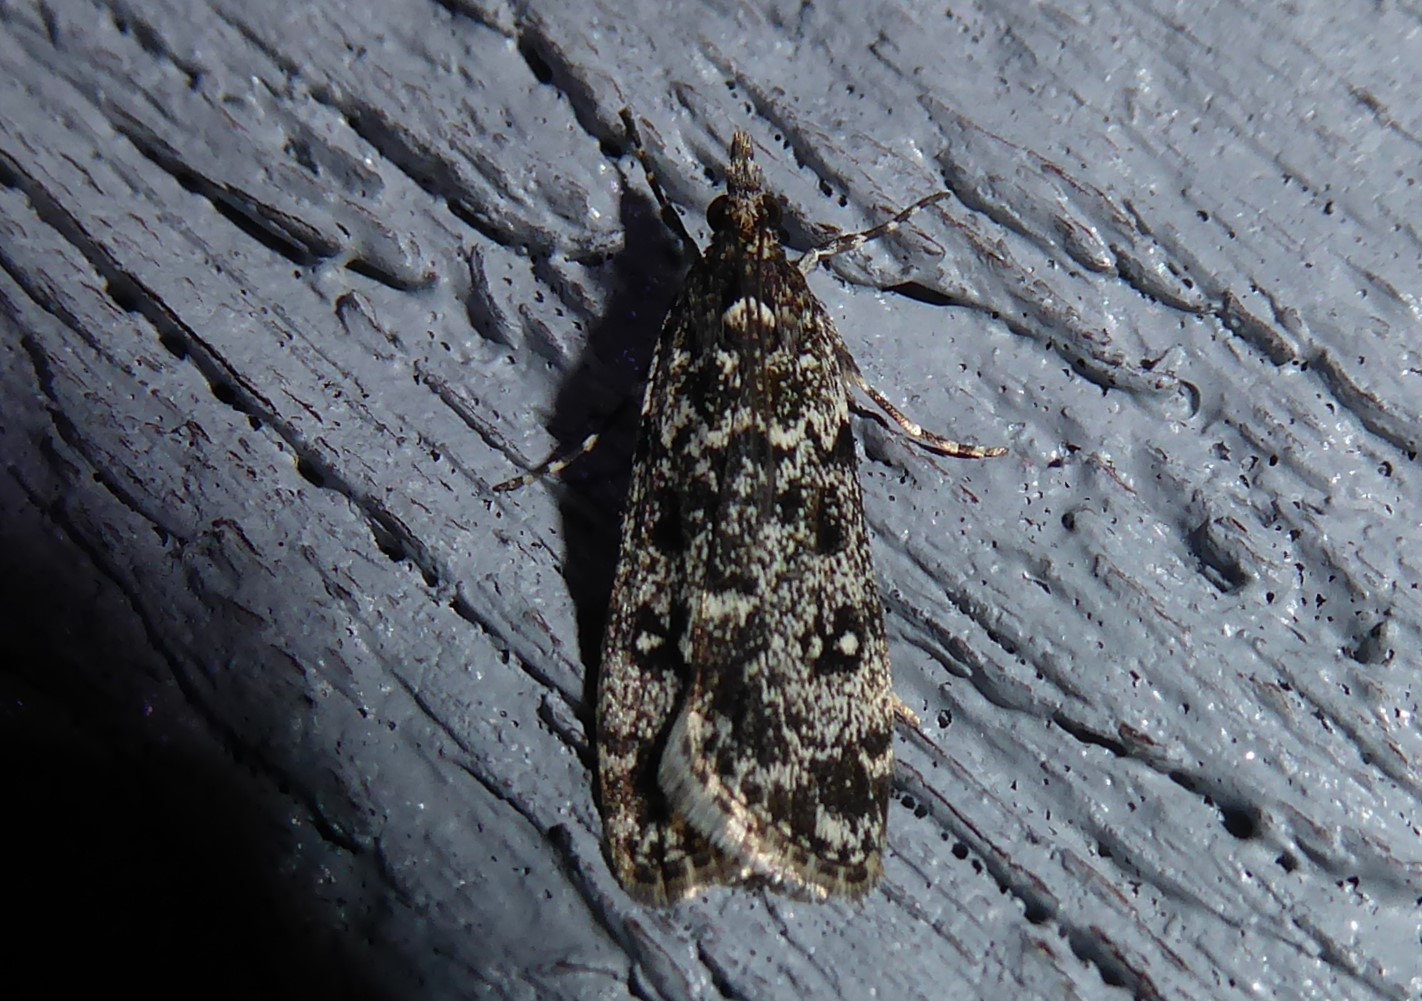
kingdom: Animalia
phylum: Arthropoda
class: Insecta
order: Lepidoptera
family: Crambidae
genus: Eudonia
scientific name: Eudonia philerga
